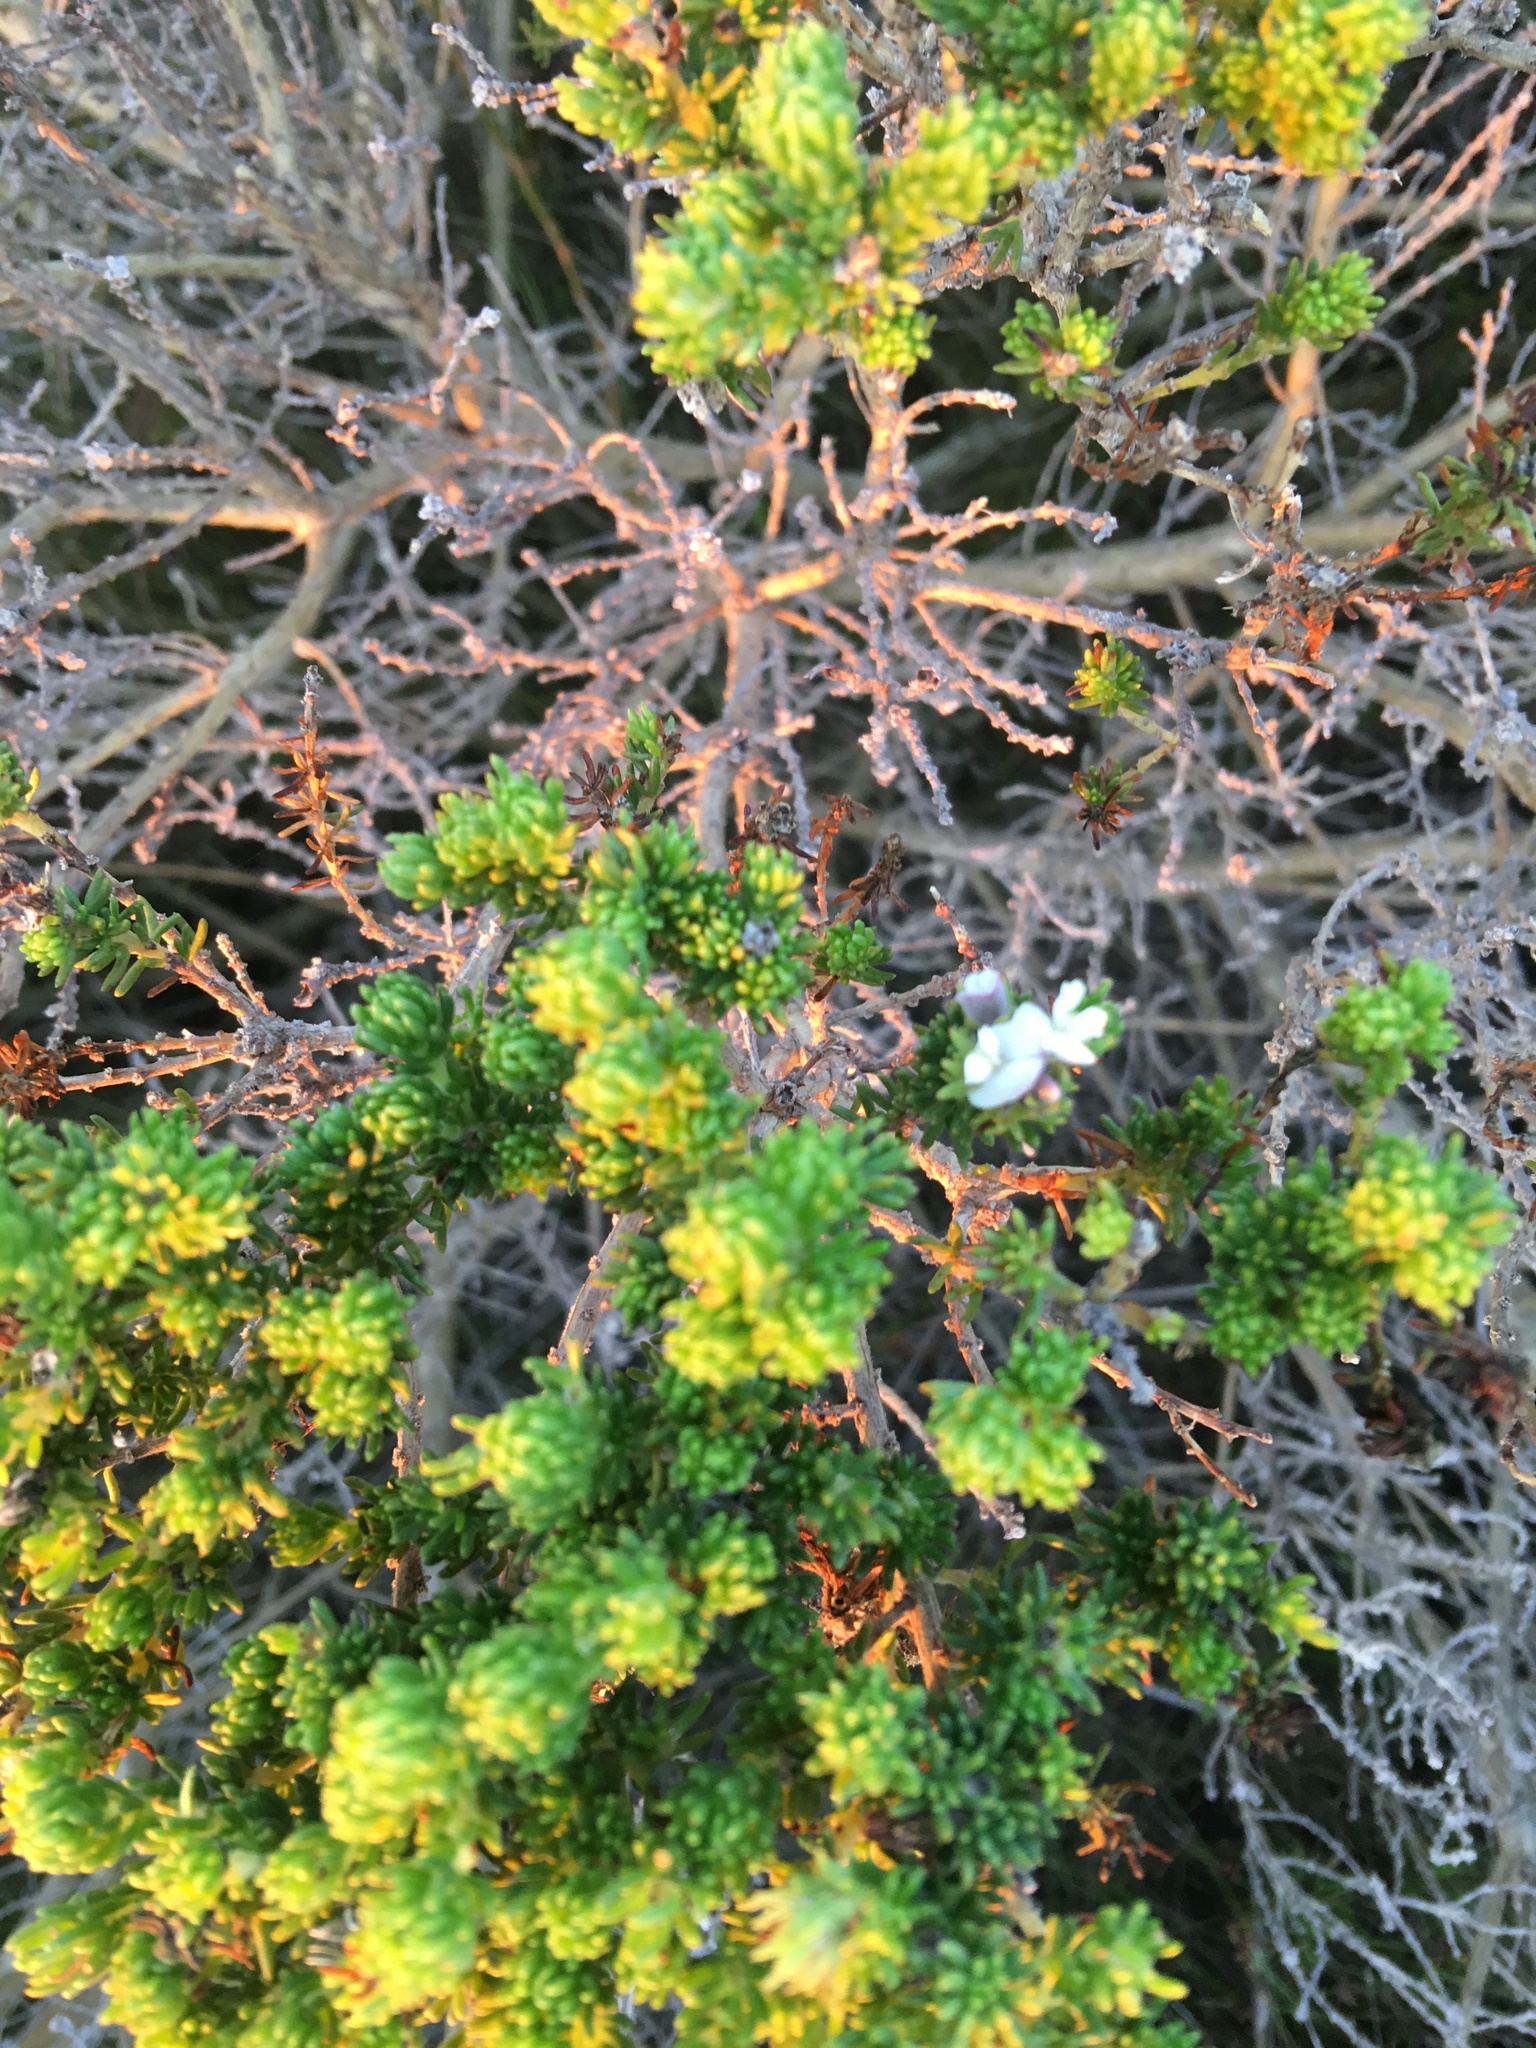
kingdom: Plantae
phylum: Tracheophyta
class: Magnoliopsida
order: Fabales
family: Fabaceae
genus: Aspalathus
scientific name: Aspalathus forbesii
